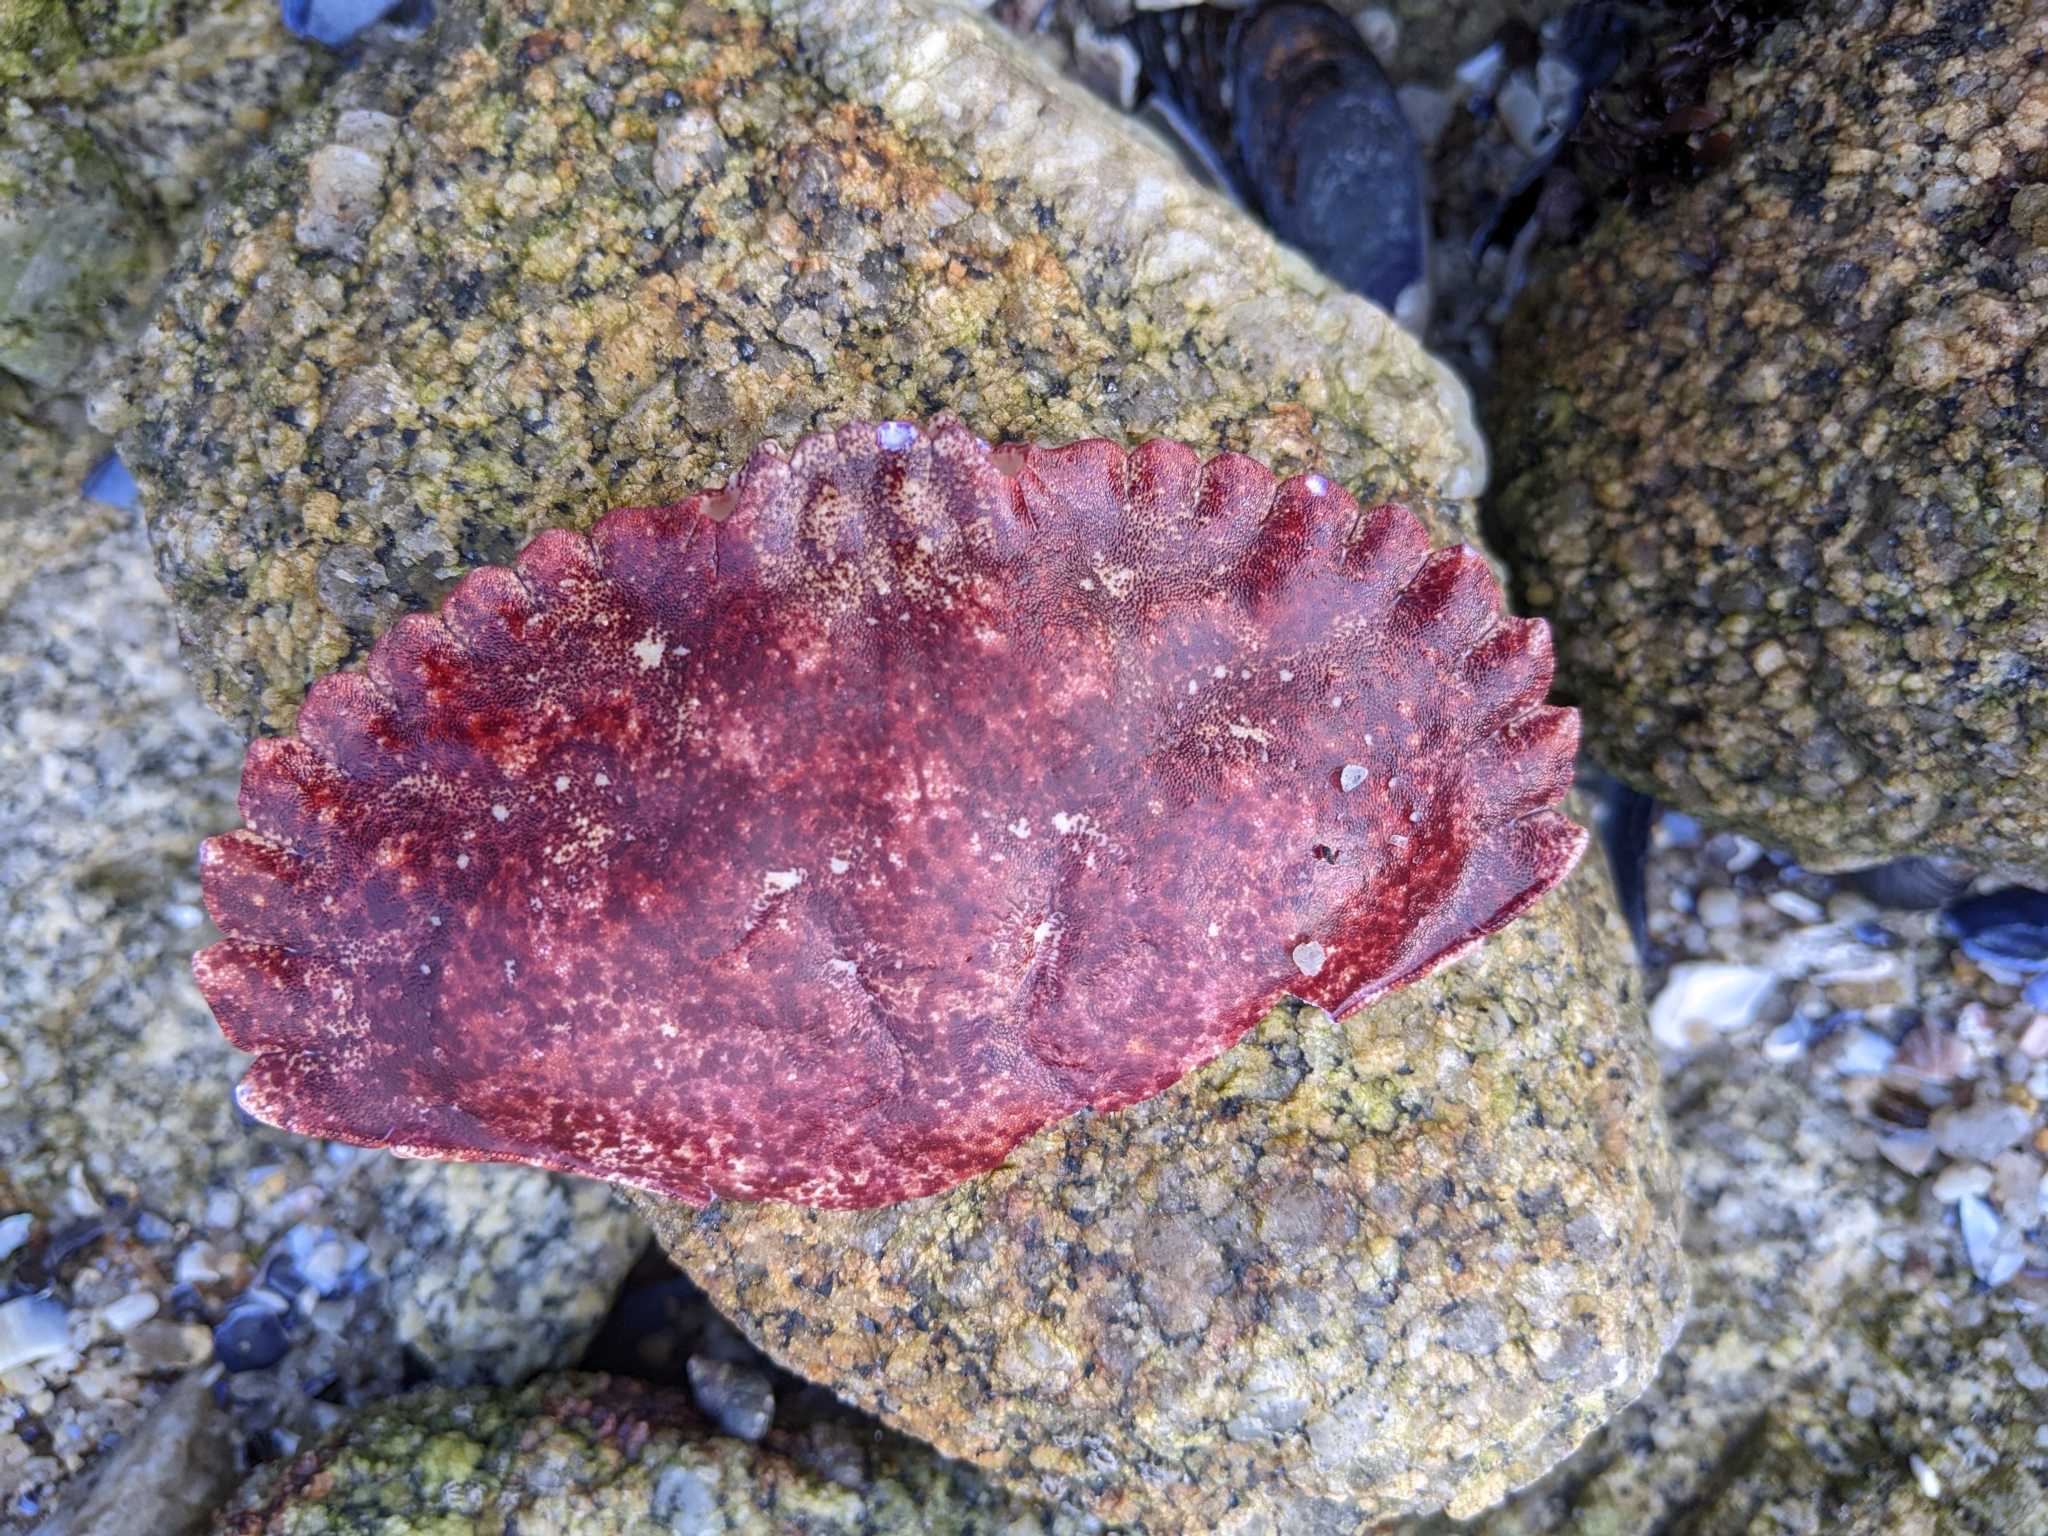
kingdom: Animalia
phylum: Arthropoda
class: Malacostraca
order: Decapoda
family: Cancridae
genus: Cancer
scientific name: Cancer productus
